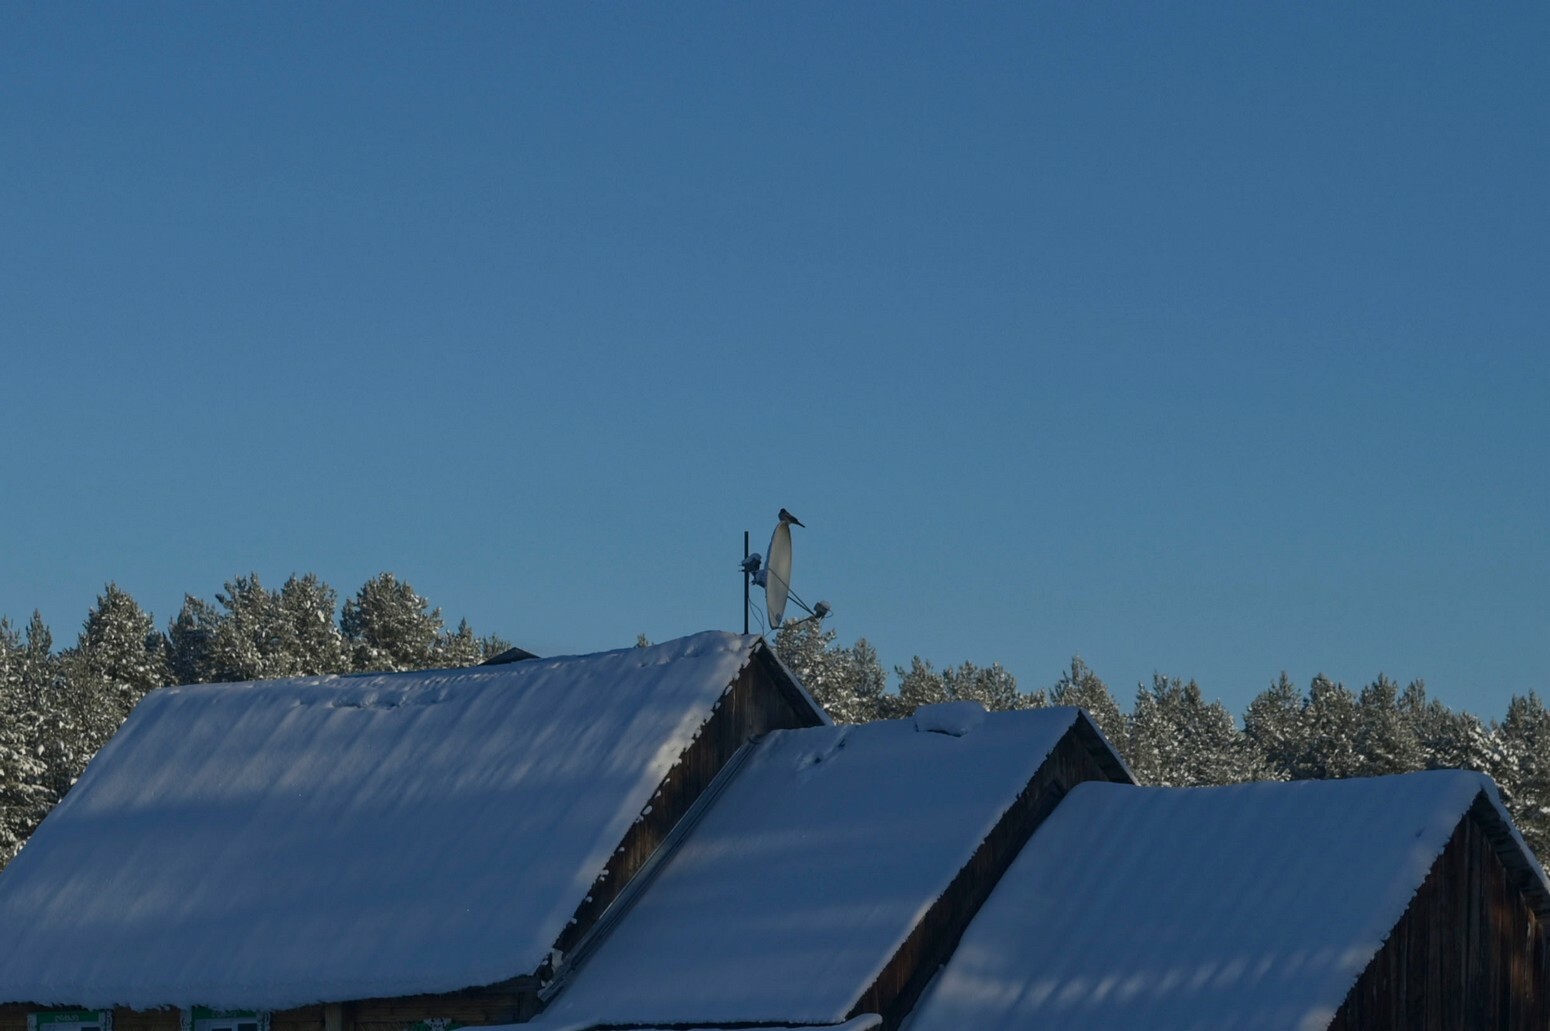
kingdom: Animalia
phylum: Chordata
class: Aves
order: Passeriformes
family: Corvidae
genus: Corvus
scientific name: Corvus cornix
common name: Hooded crow
